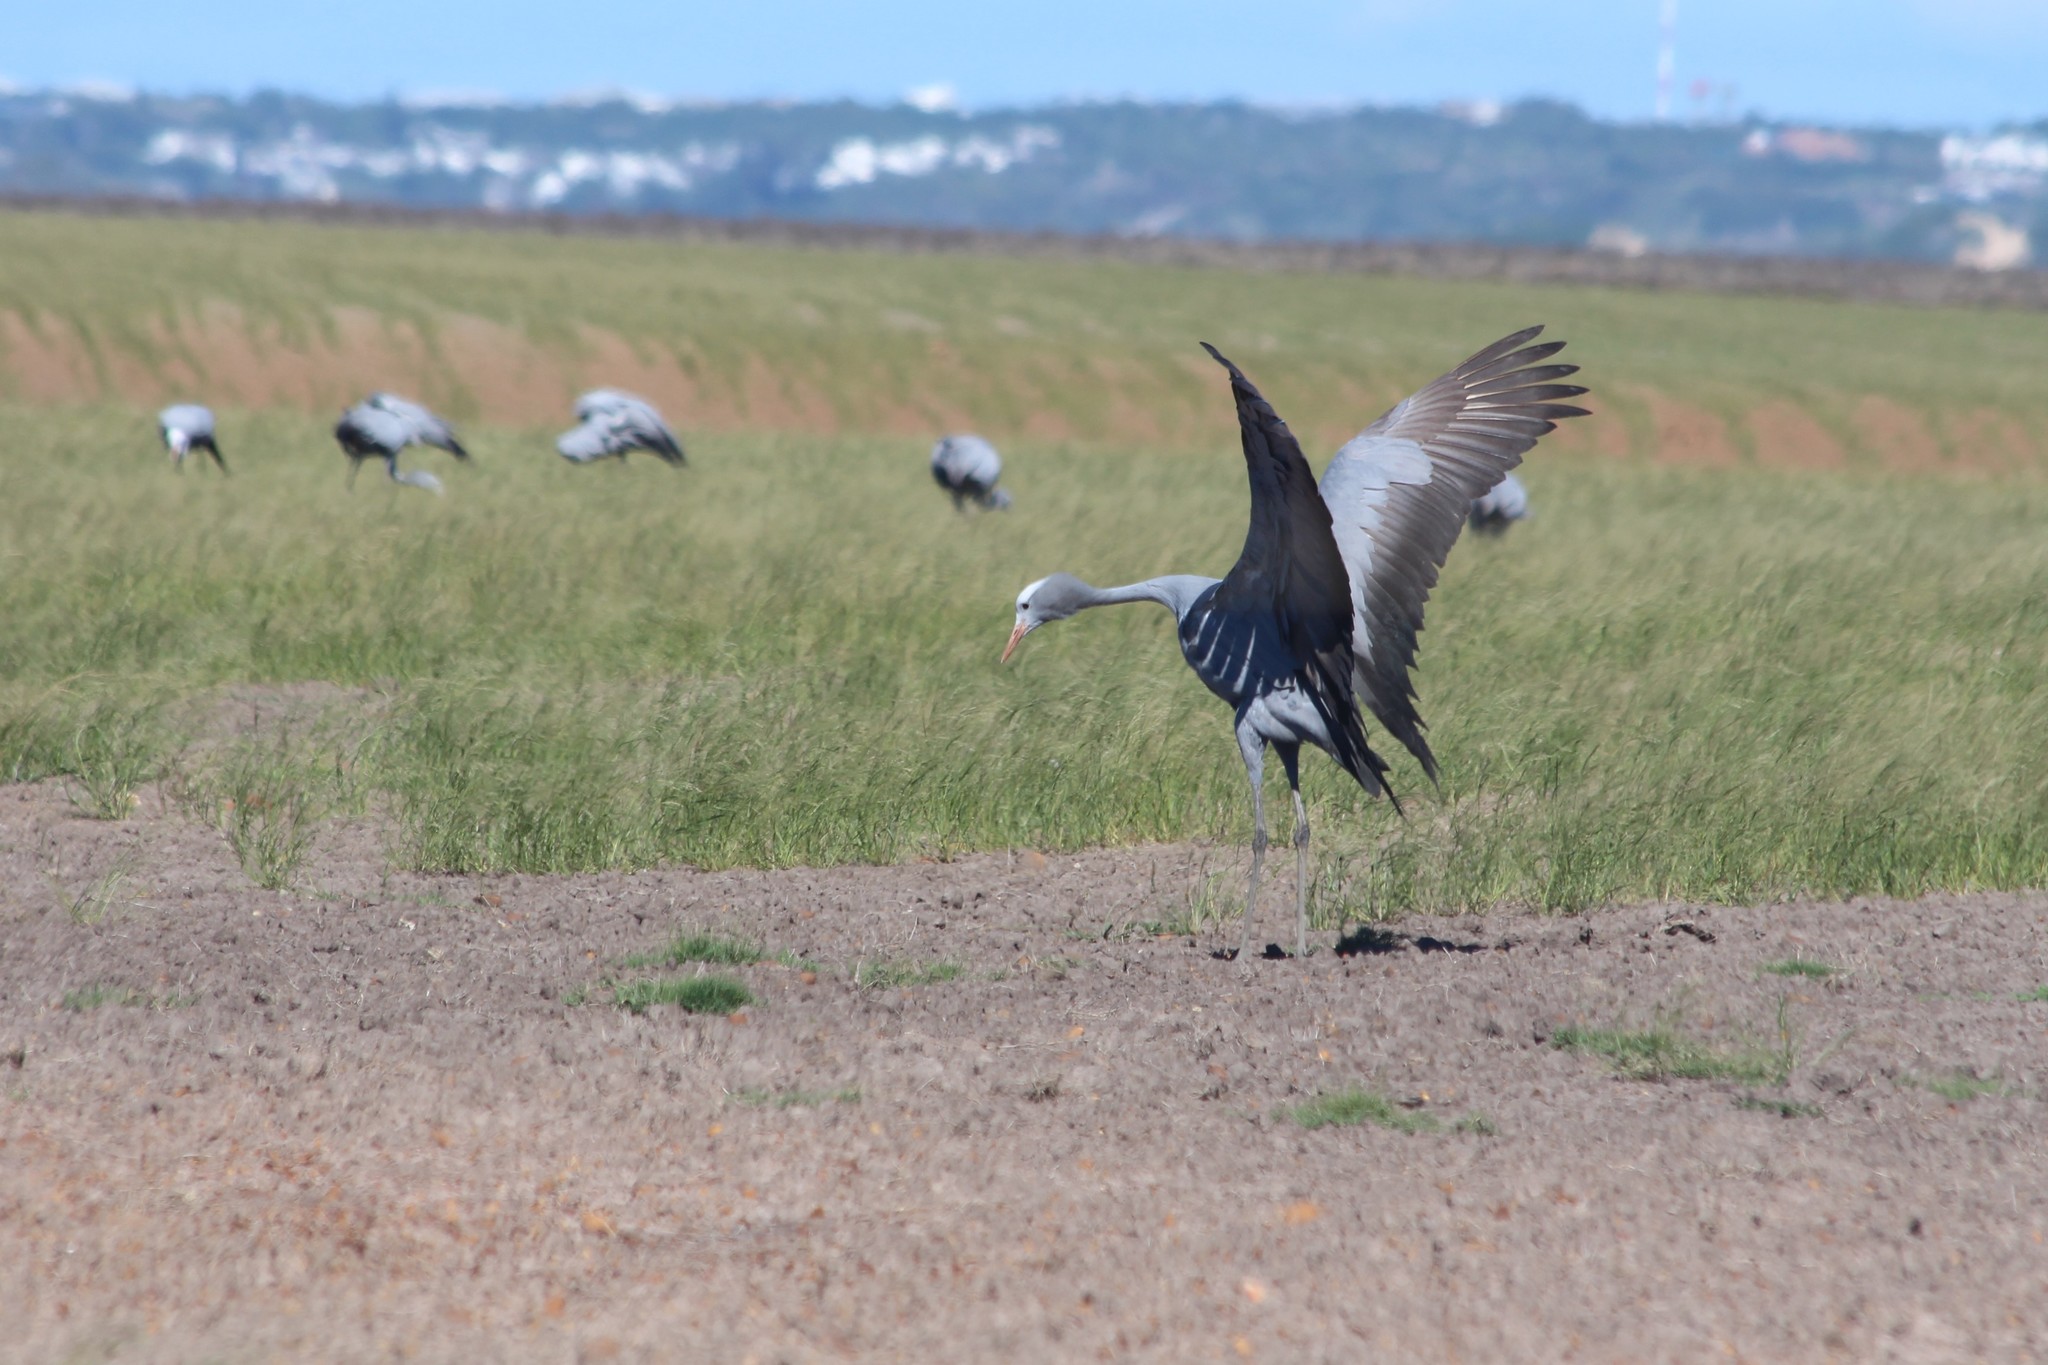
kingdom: Animalia
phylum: Chordata
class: Aves
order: Gruiformes
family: Gruidae
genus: Anthropoides
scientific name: Anthropoides paradiseus
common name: Blue crane
